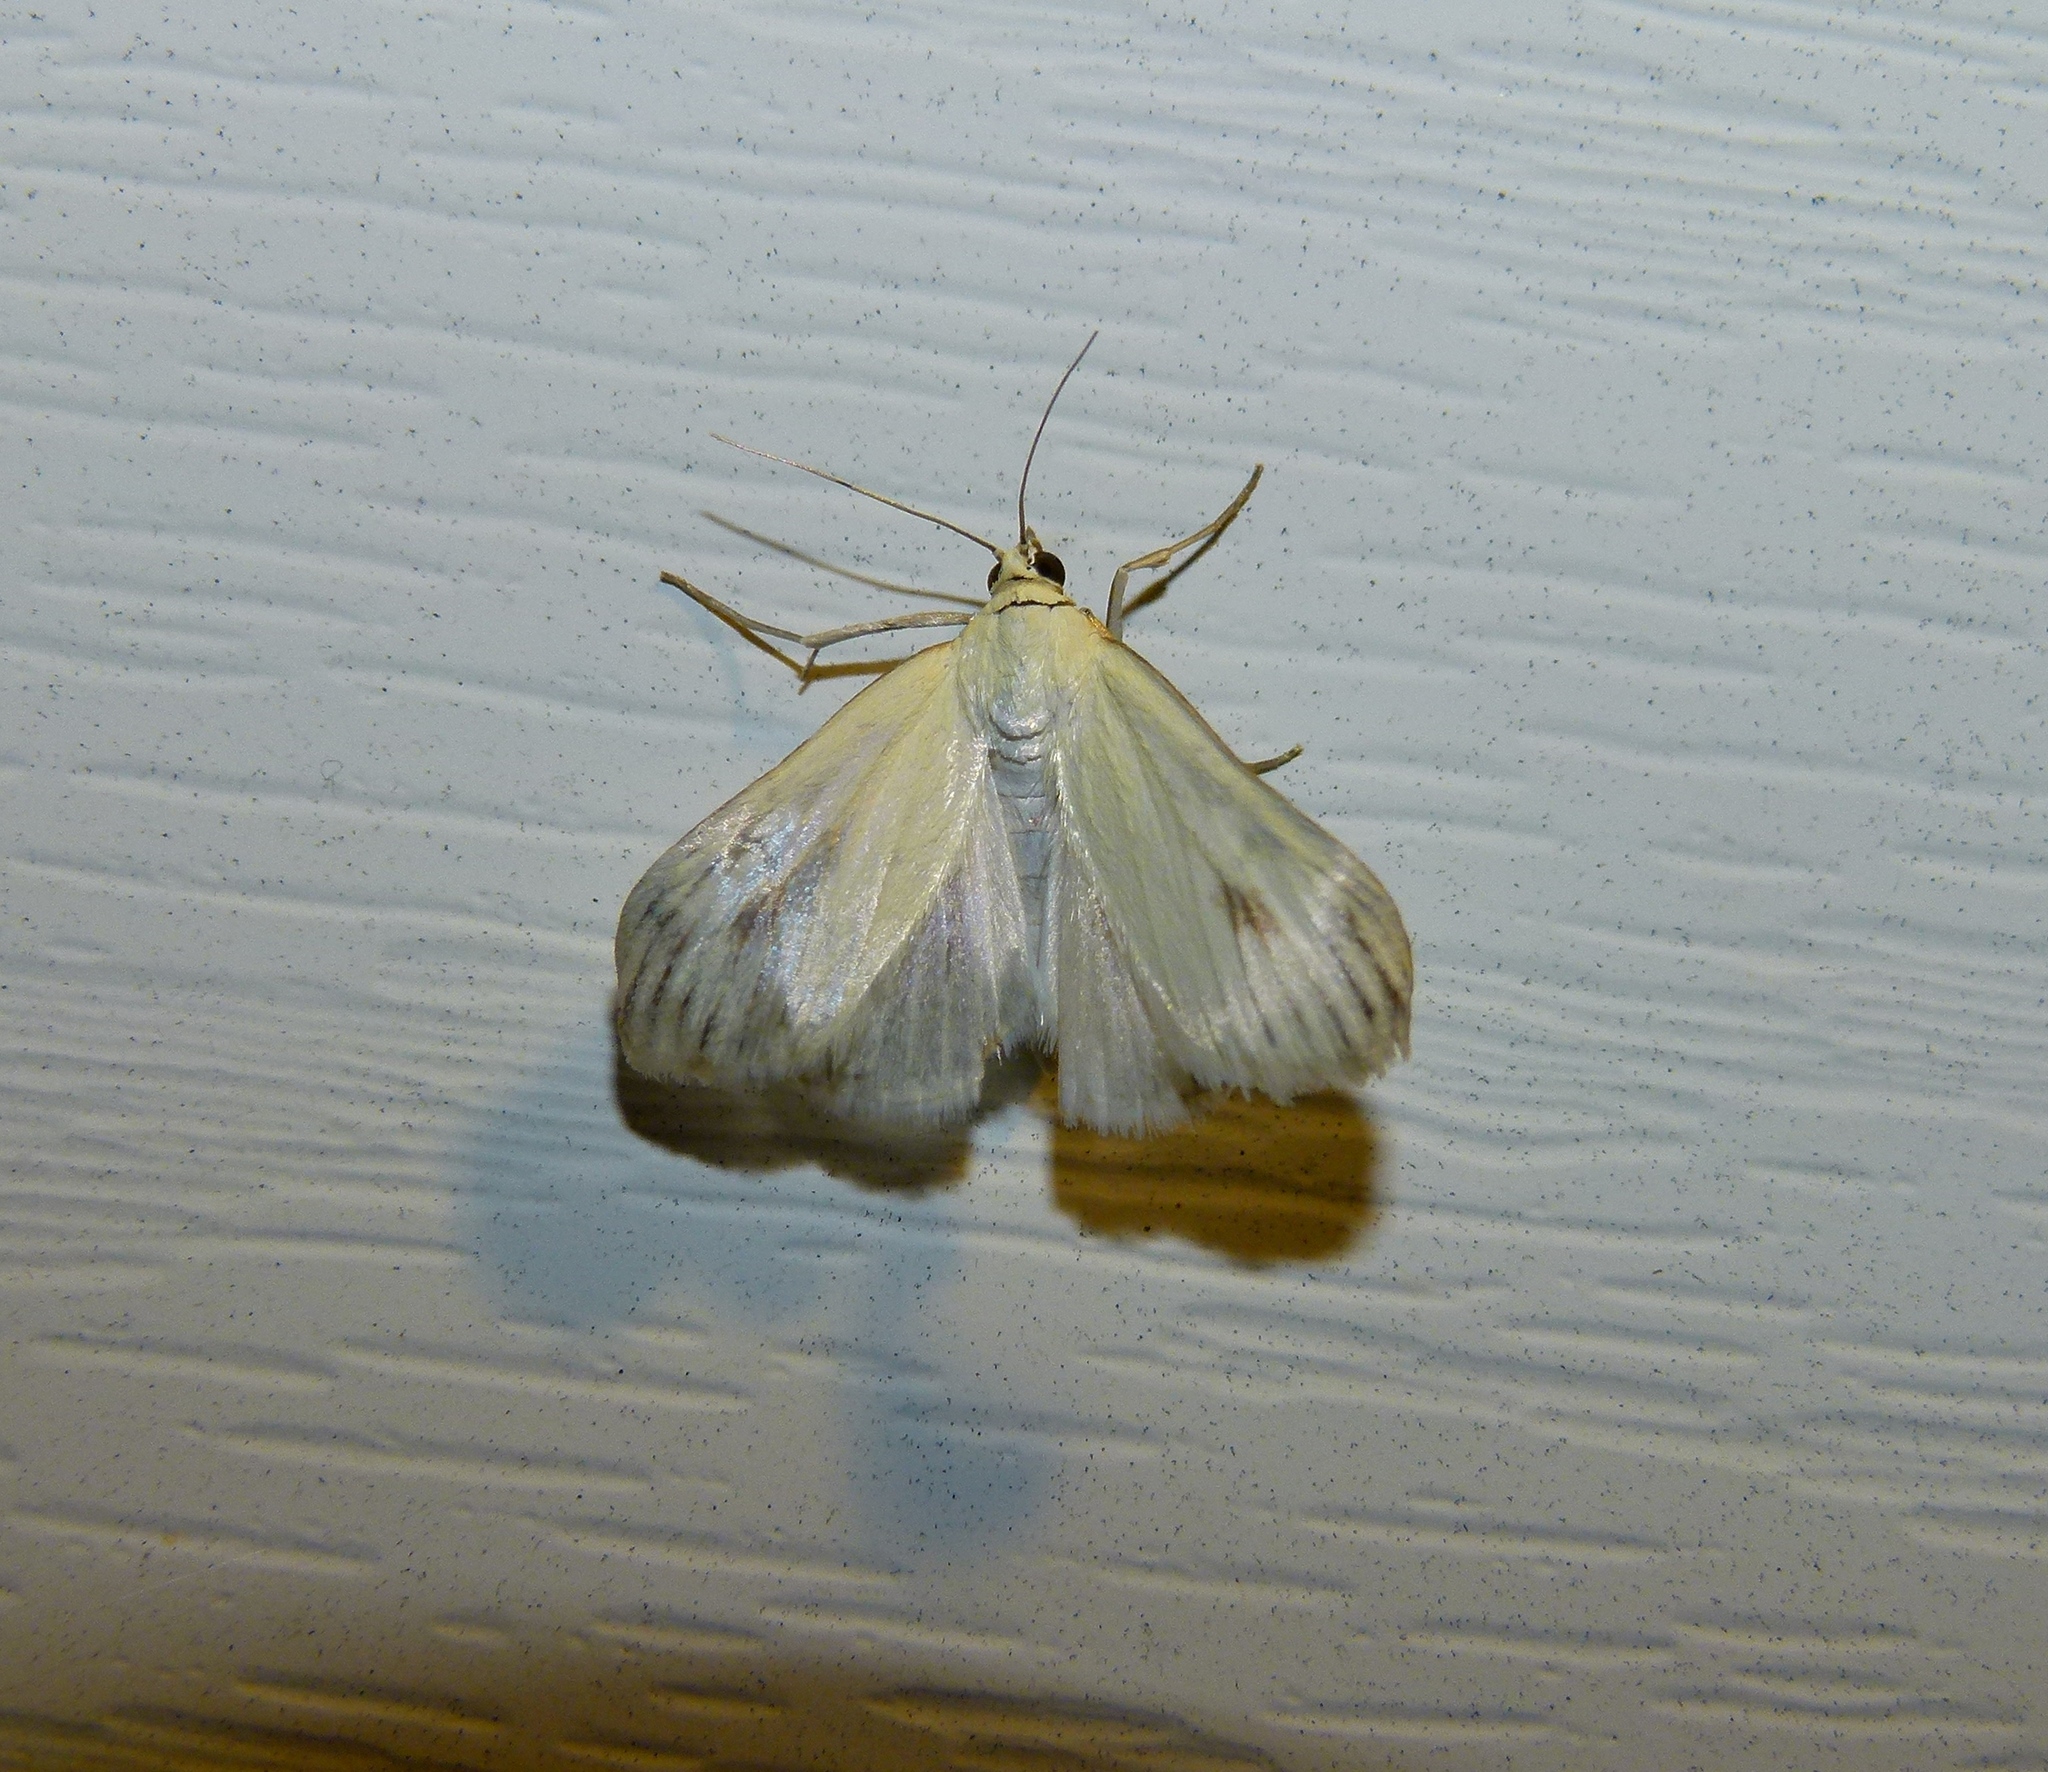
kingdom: Animalia
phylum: Arthropoda
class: Insecta
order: Lepidoptera
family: Crambidae
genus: Sitochroa
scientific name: Sitochroa palealis
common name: Greenish-yellow sitochroa moth
